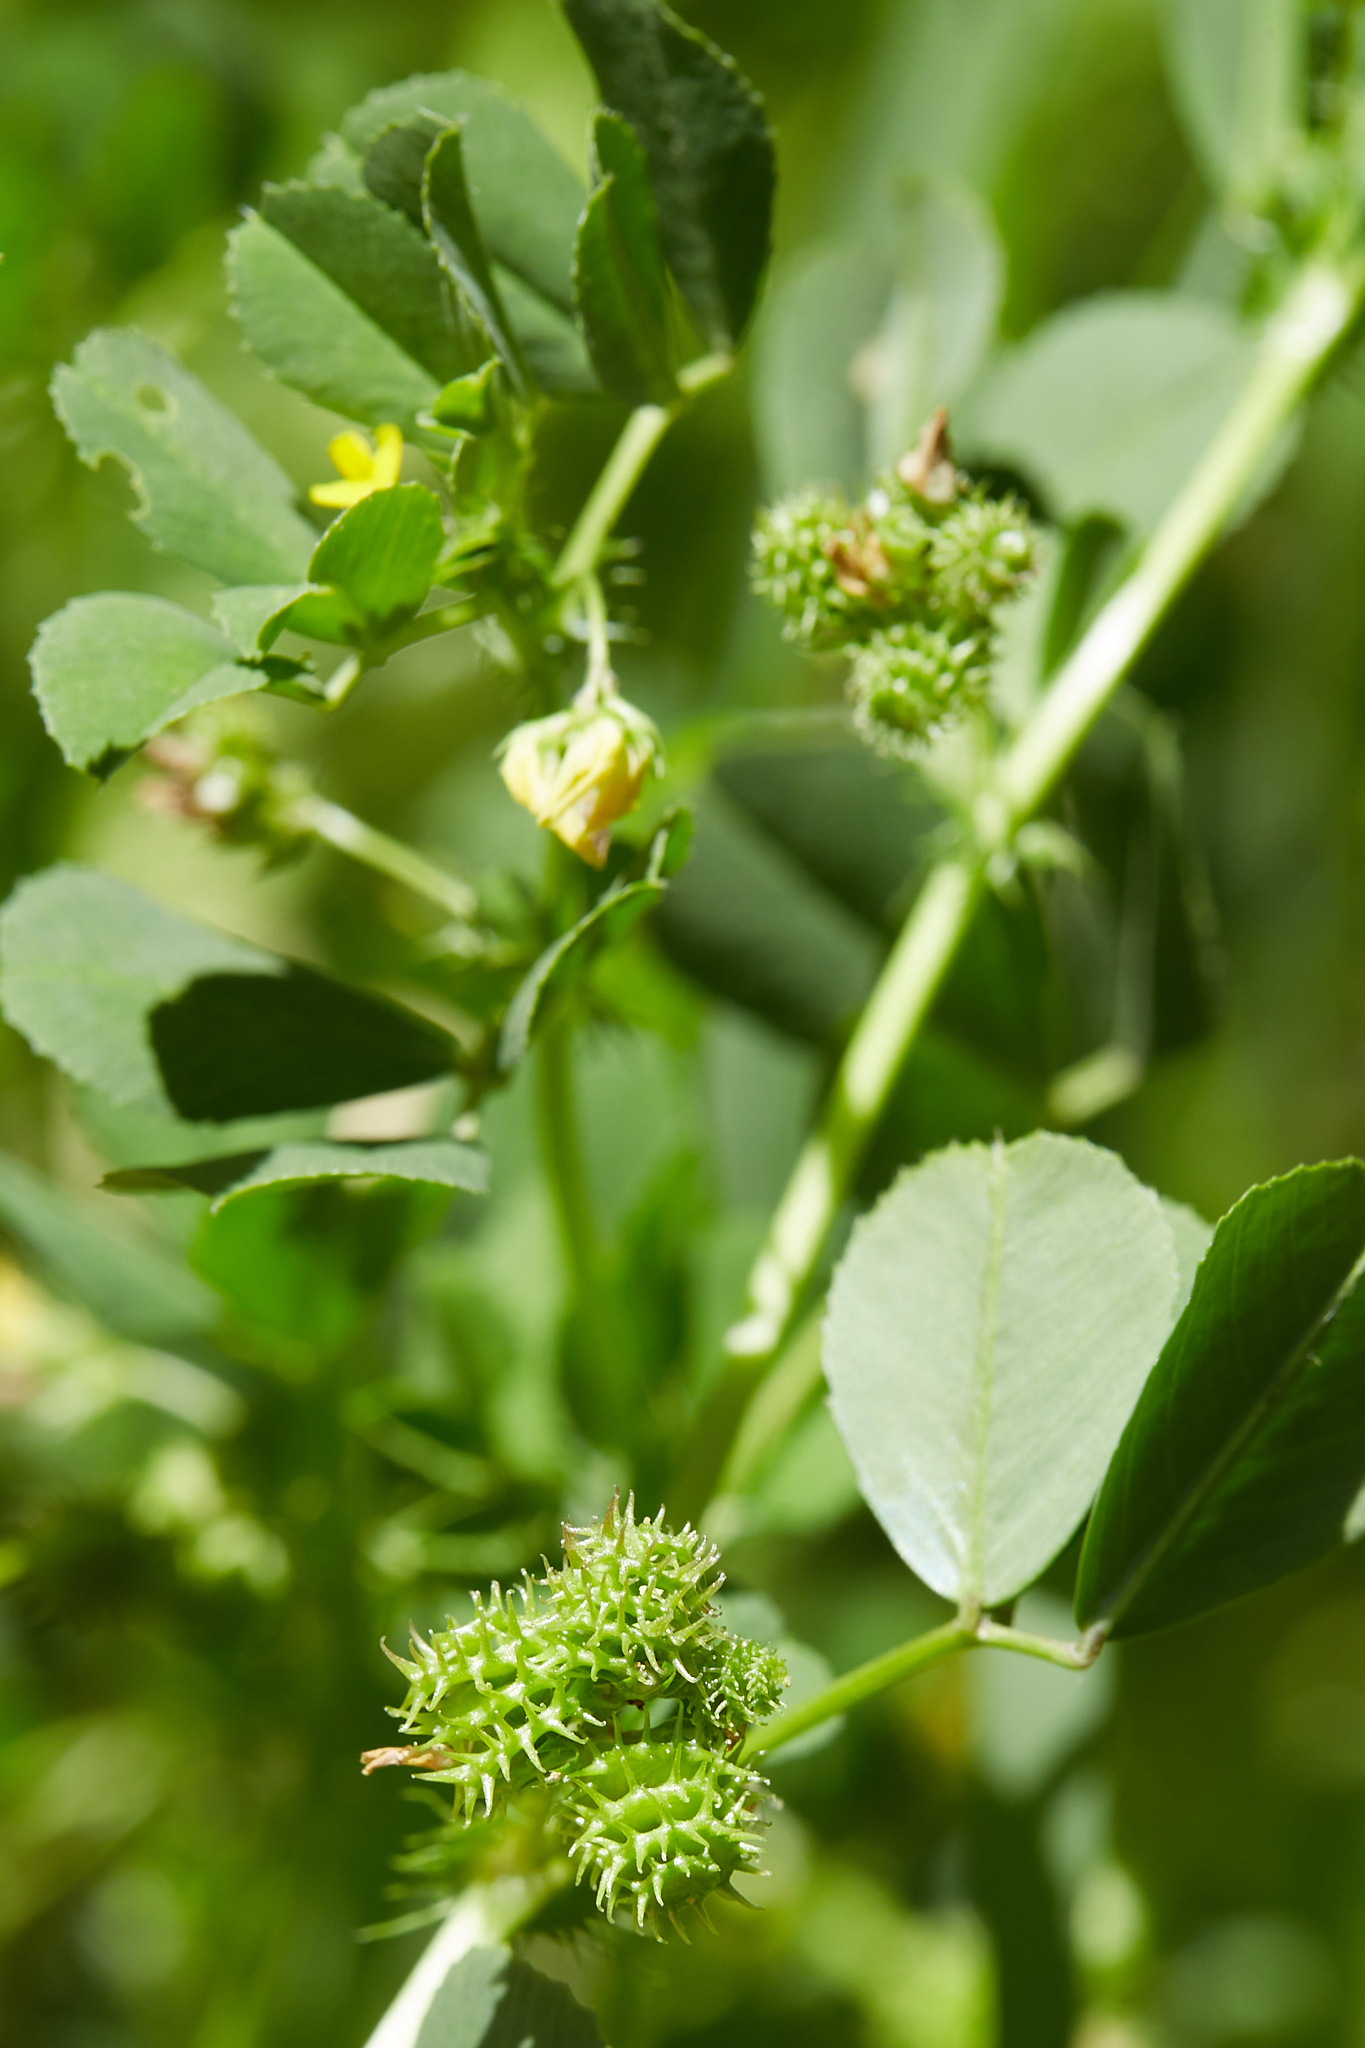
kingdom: Plantae
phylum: Tracheophyta
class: Magnoliopsida
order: Fabales
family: Fabaceae
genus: Medicago
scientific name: Medicago polymorpha
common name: Burclover
